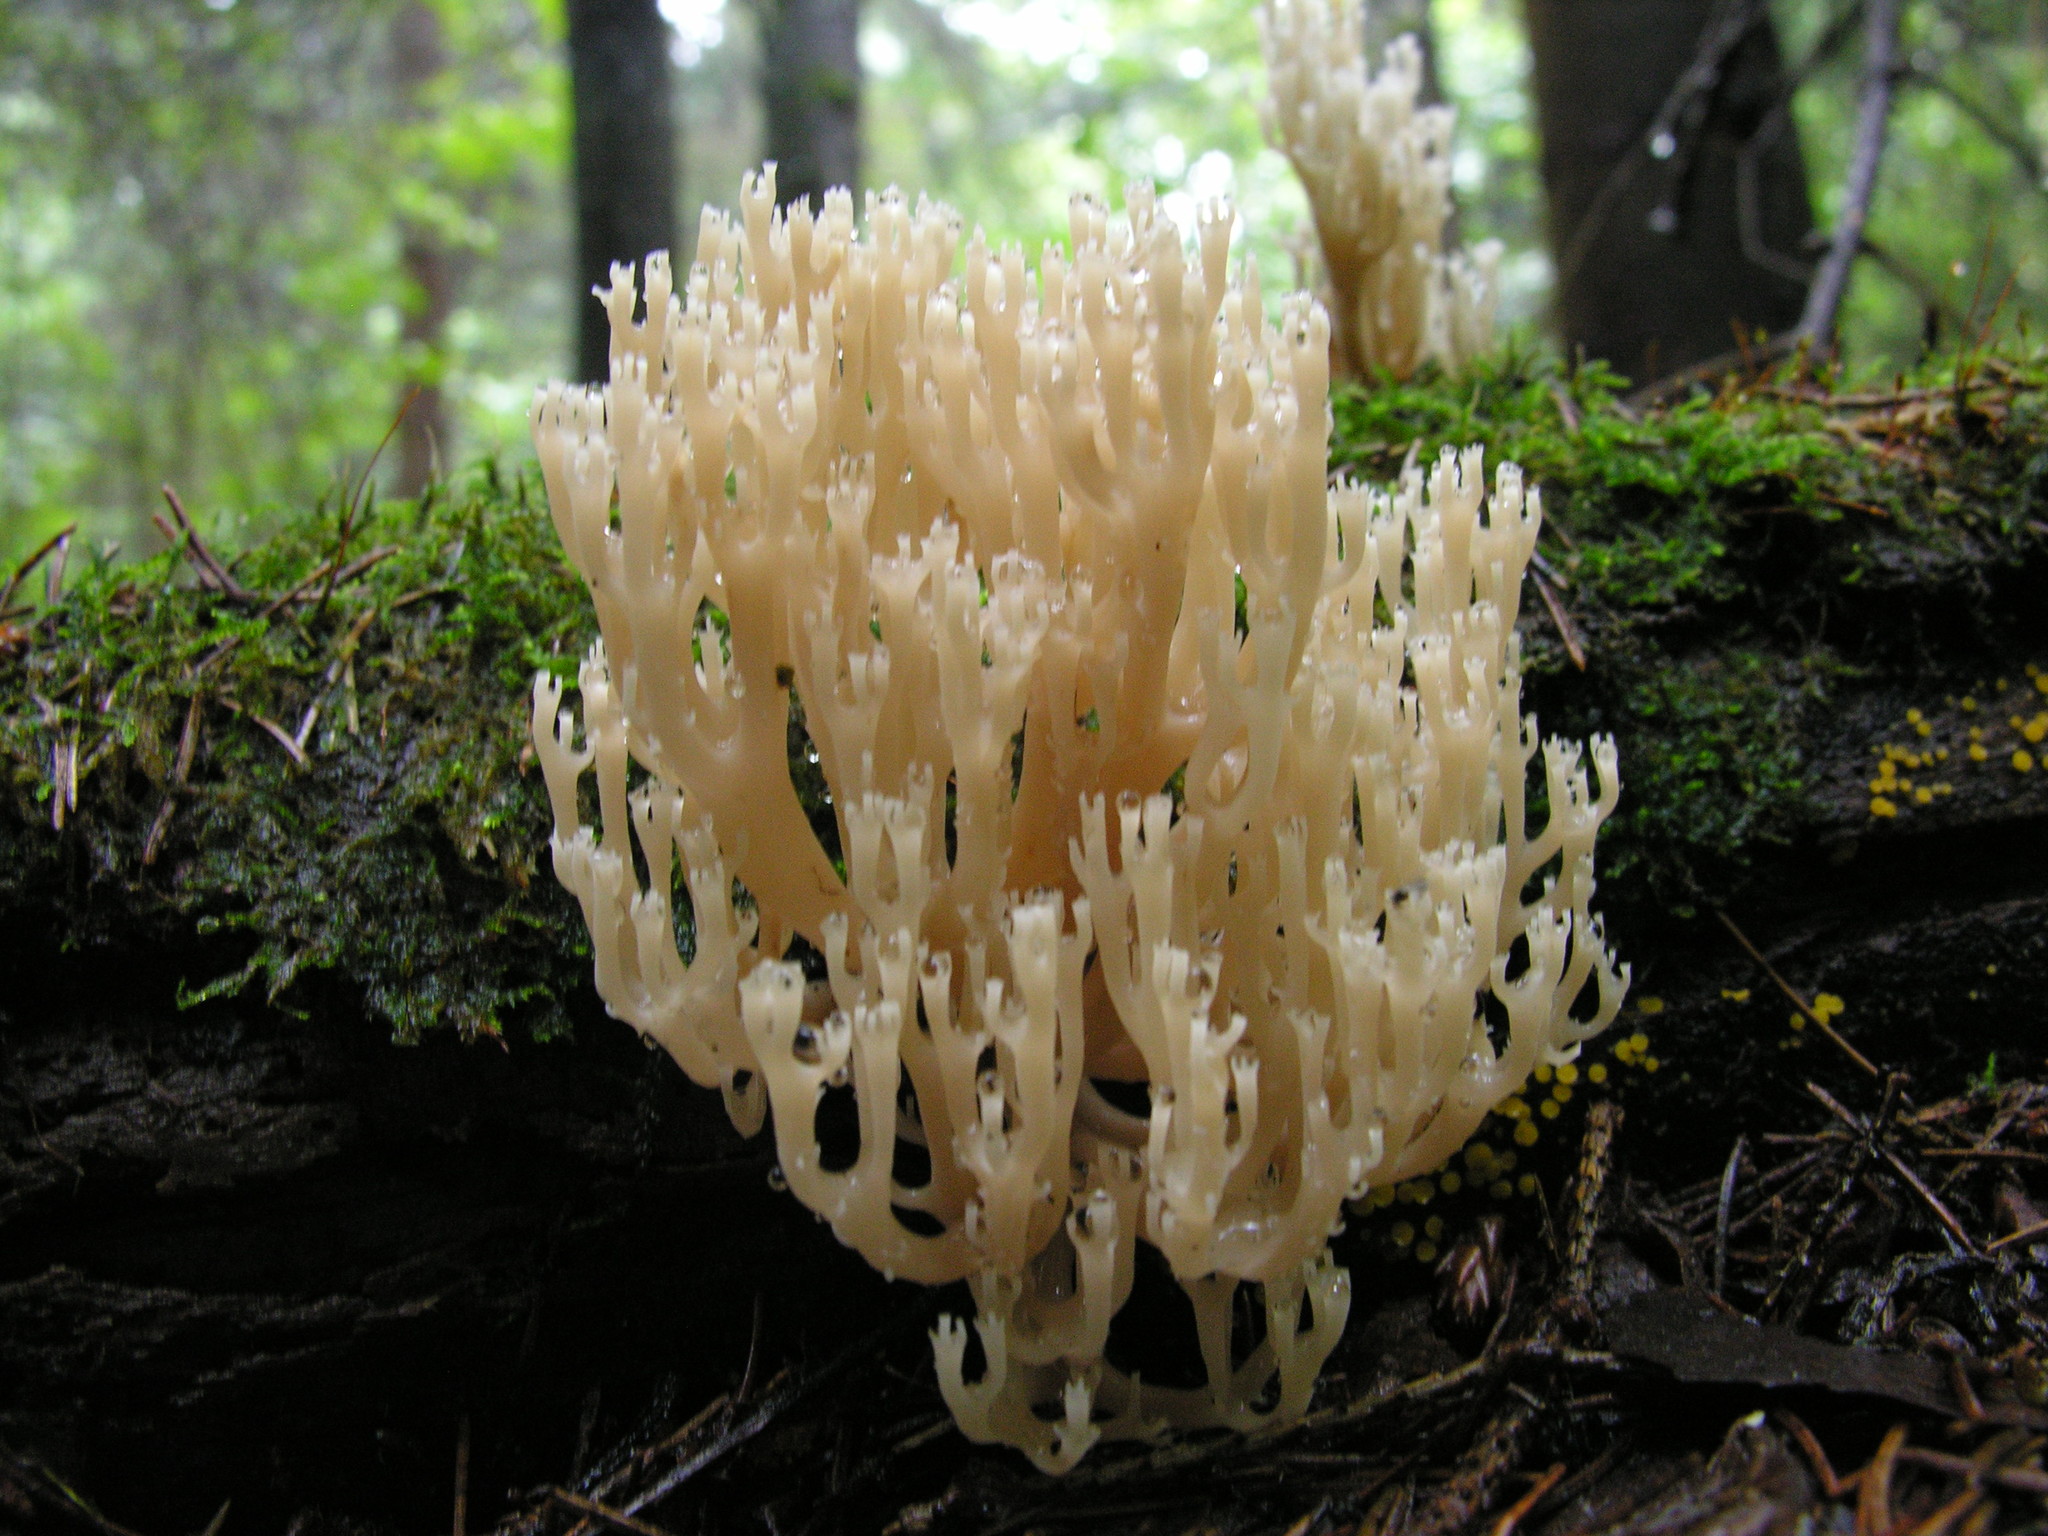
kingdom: Fungi
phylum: Basidiomycota
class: Agaricomycetes
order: Russulales
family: Auriscalpiaceae
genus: Artomyces
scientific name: Artomyces pyxidatus
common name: Crown-tipped coral fungus
